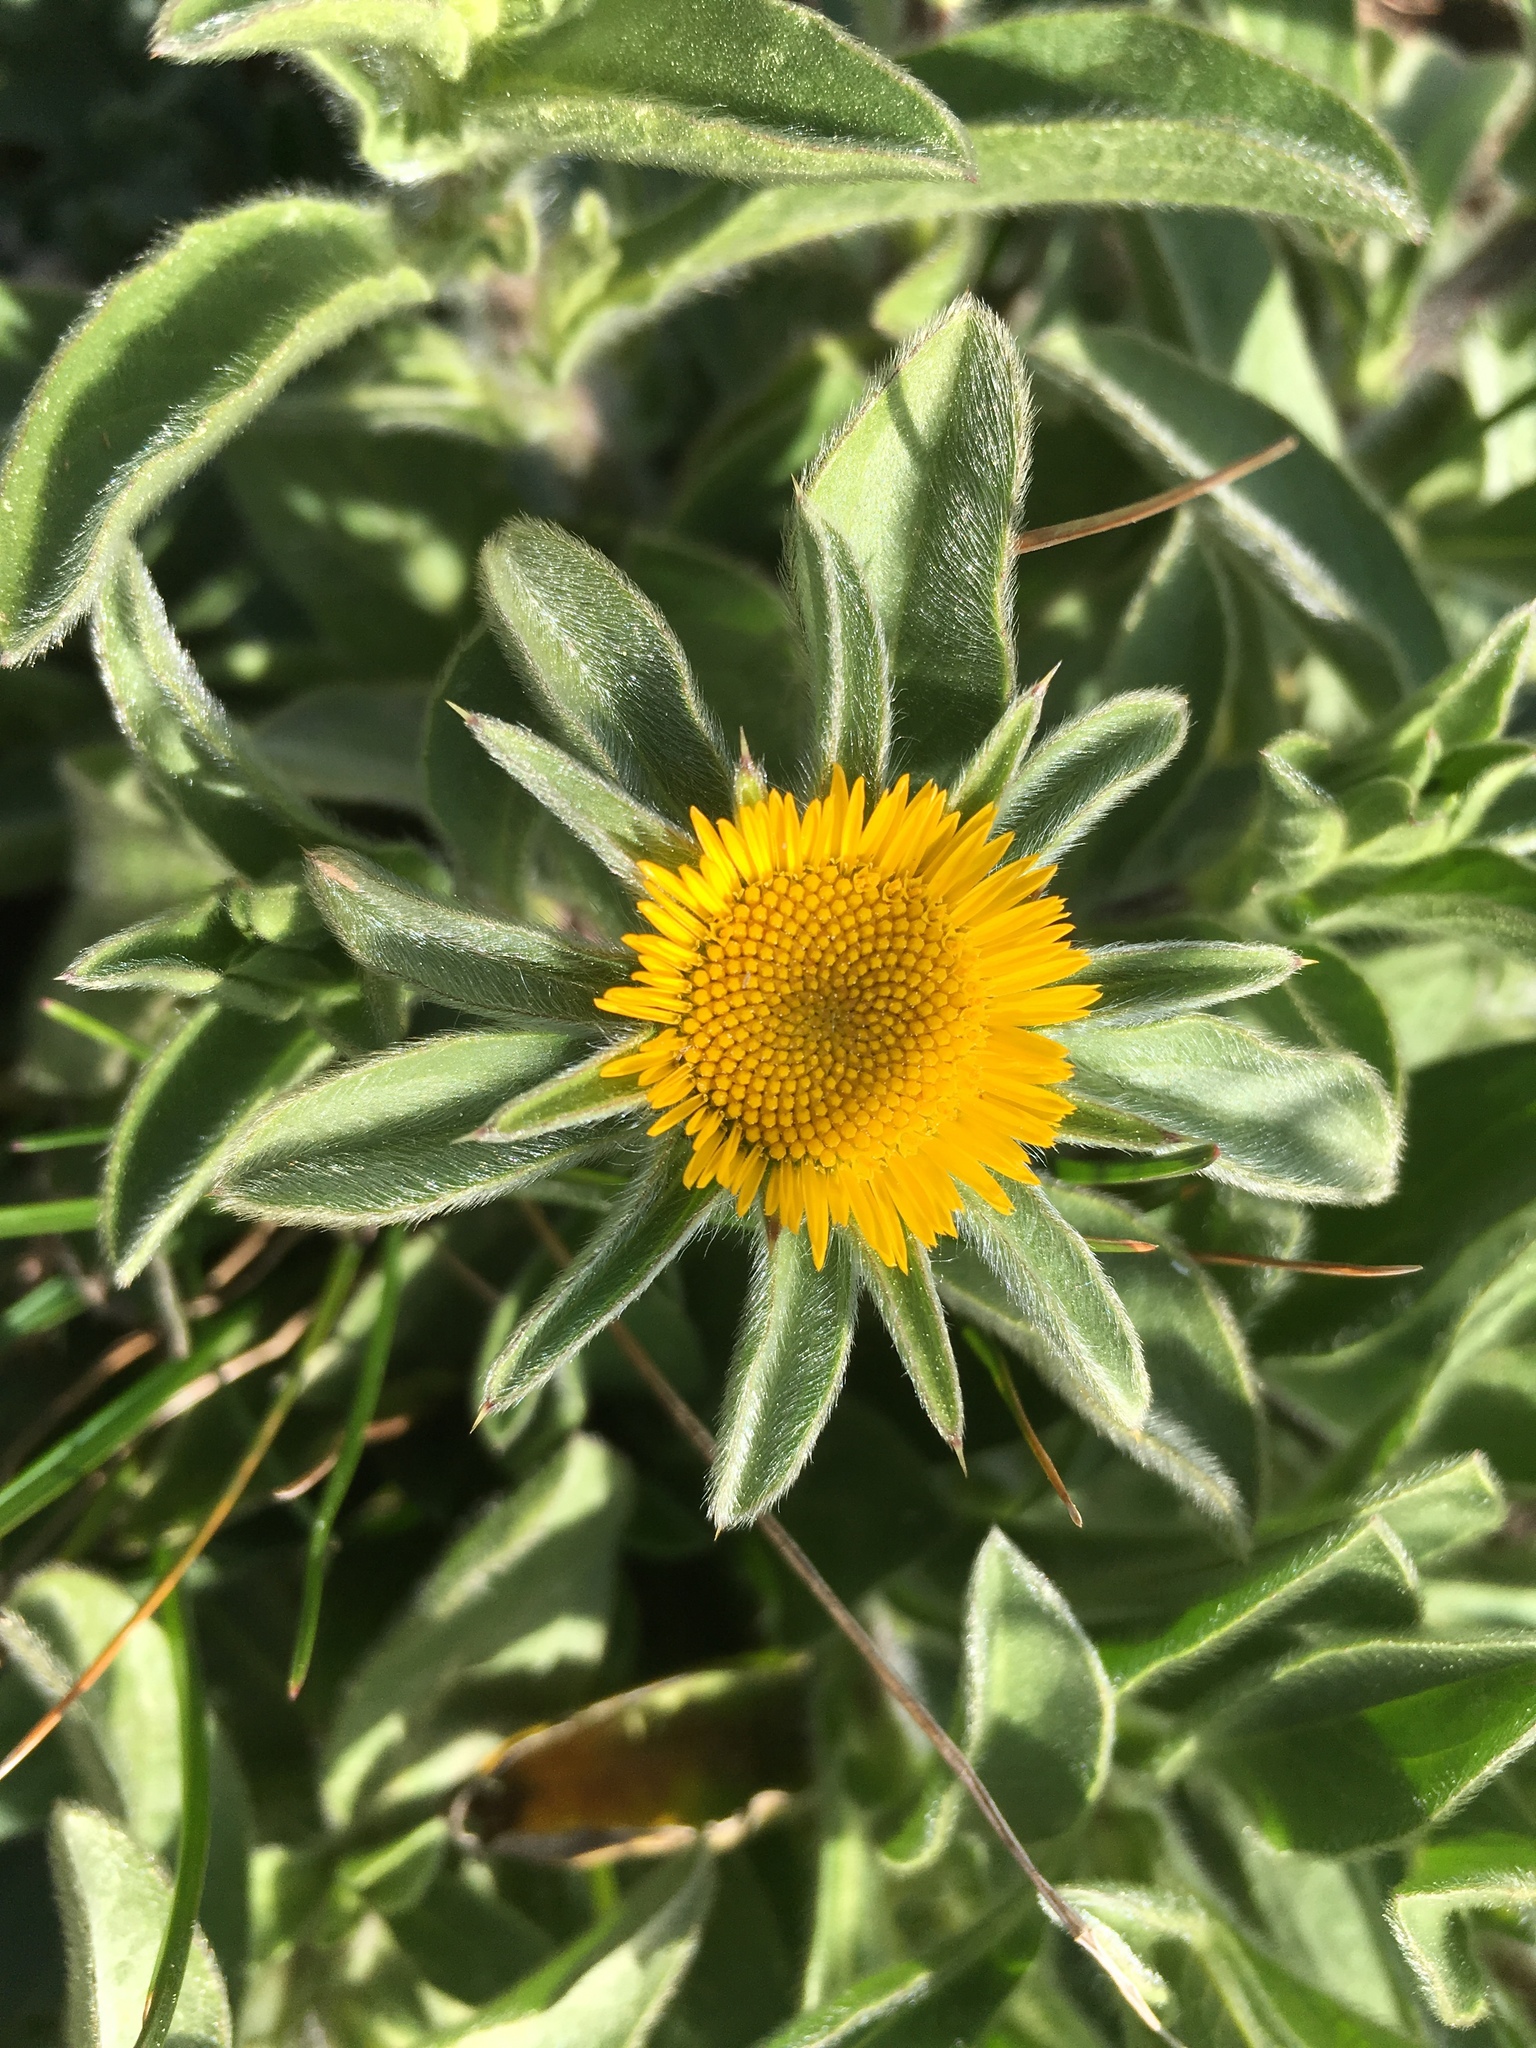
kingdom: Plantae
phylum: Tracheophyta
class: Magnoliopsida
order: Asterales
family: Asteraceae
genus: Pallenis
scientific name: Pallenis spinosa
